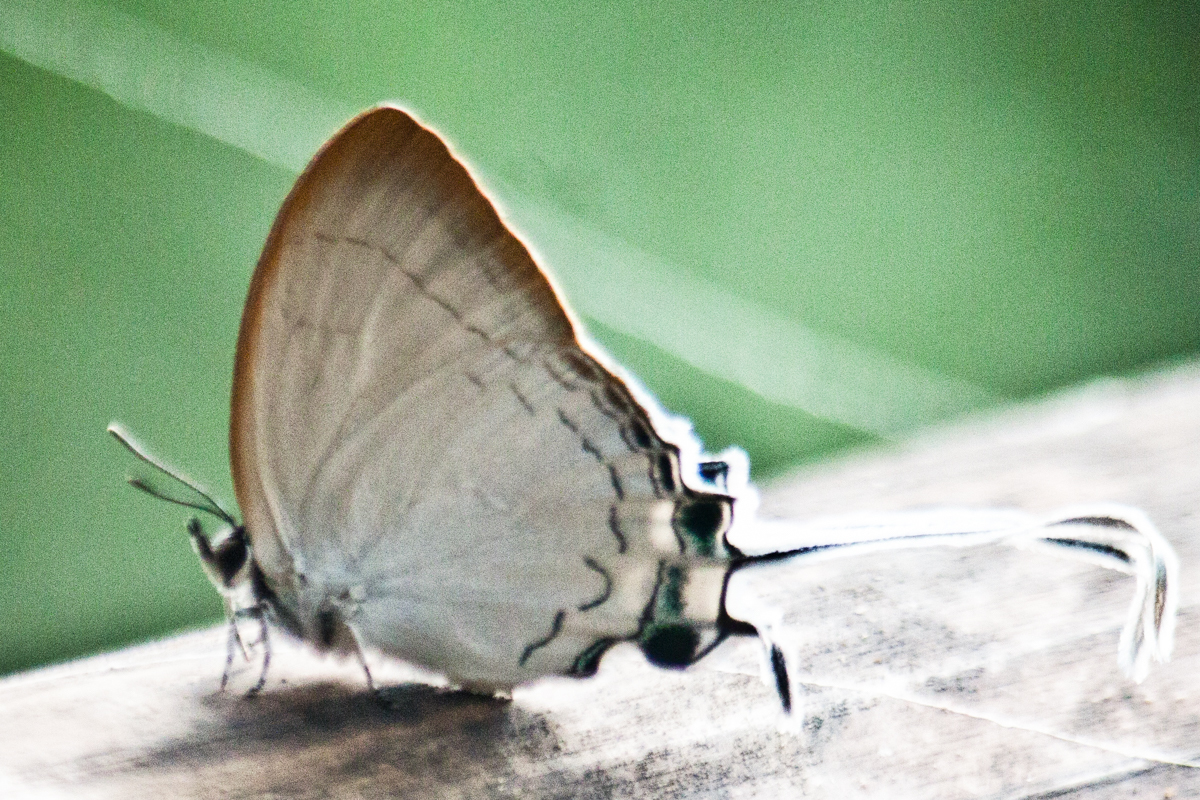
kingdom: Animalia
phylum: Arthropoda
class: Insecta
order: Lepidoptera
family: Lycaenidae
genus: Cheritra
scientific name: Cheritra freja
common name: Common imperial
